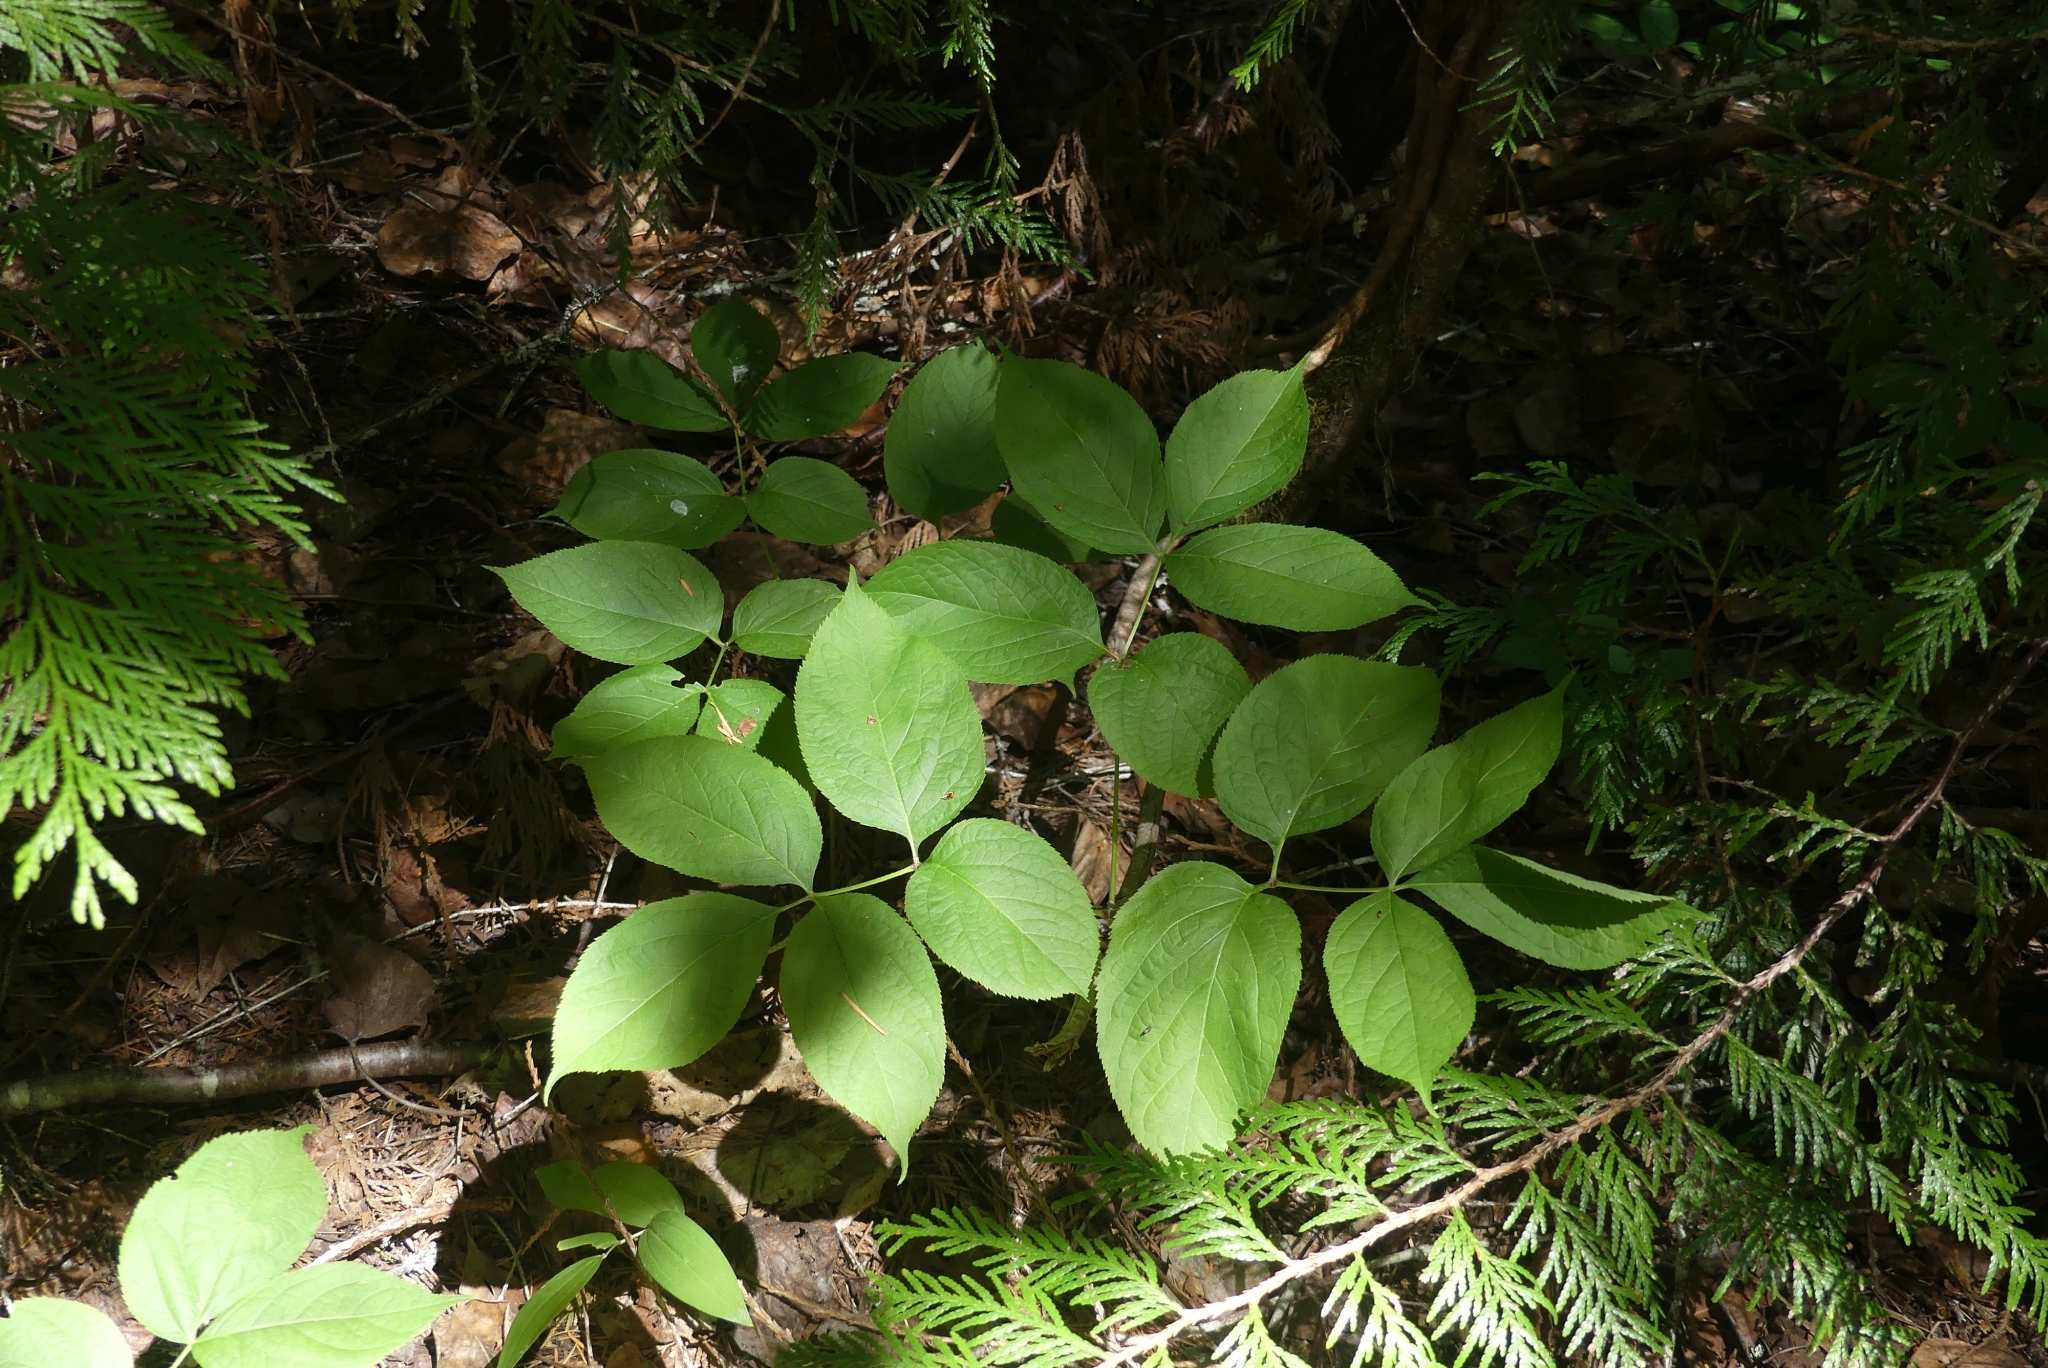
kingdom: Plantae
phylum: Tracheophyta
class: Magnoliopsida
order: Apiales
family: Araliaceae
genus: Aralia
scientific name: Aralia nudicaulis
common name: Wild sarsaparilla
